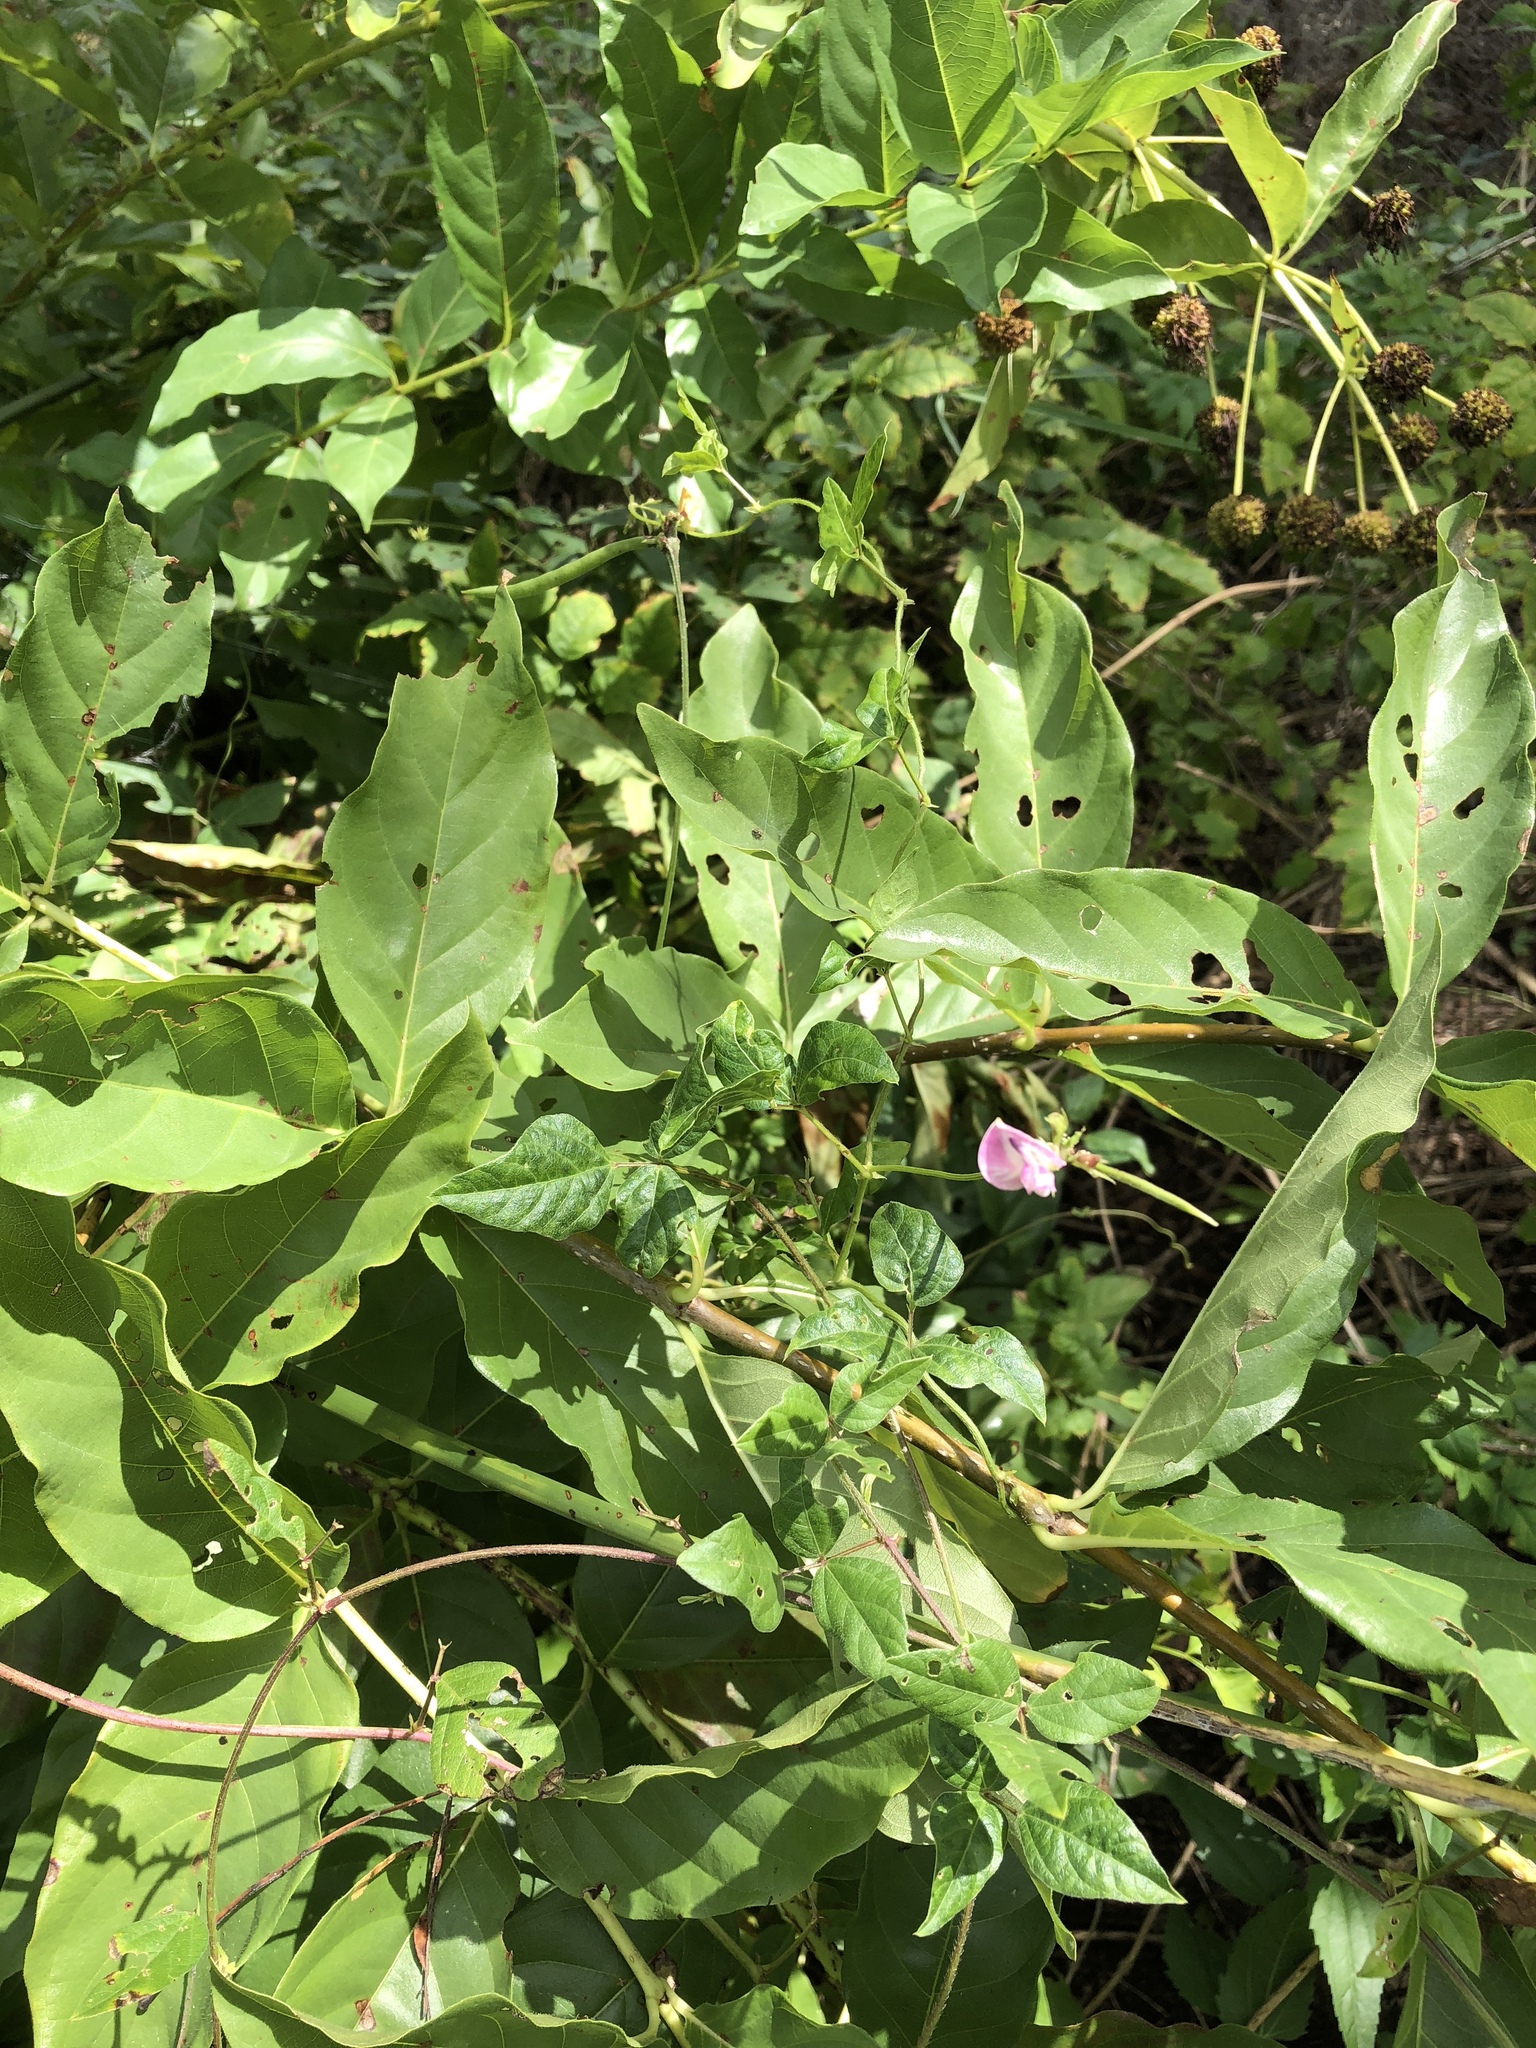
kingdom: Plantae
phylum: Tracheophyta
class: Magnoliopsida
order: Fabales
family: Fabaceae
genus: Strophostyles
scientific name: Strophostyles helvola
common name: Trailing wild bean
